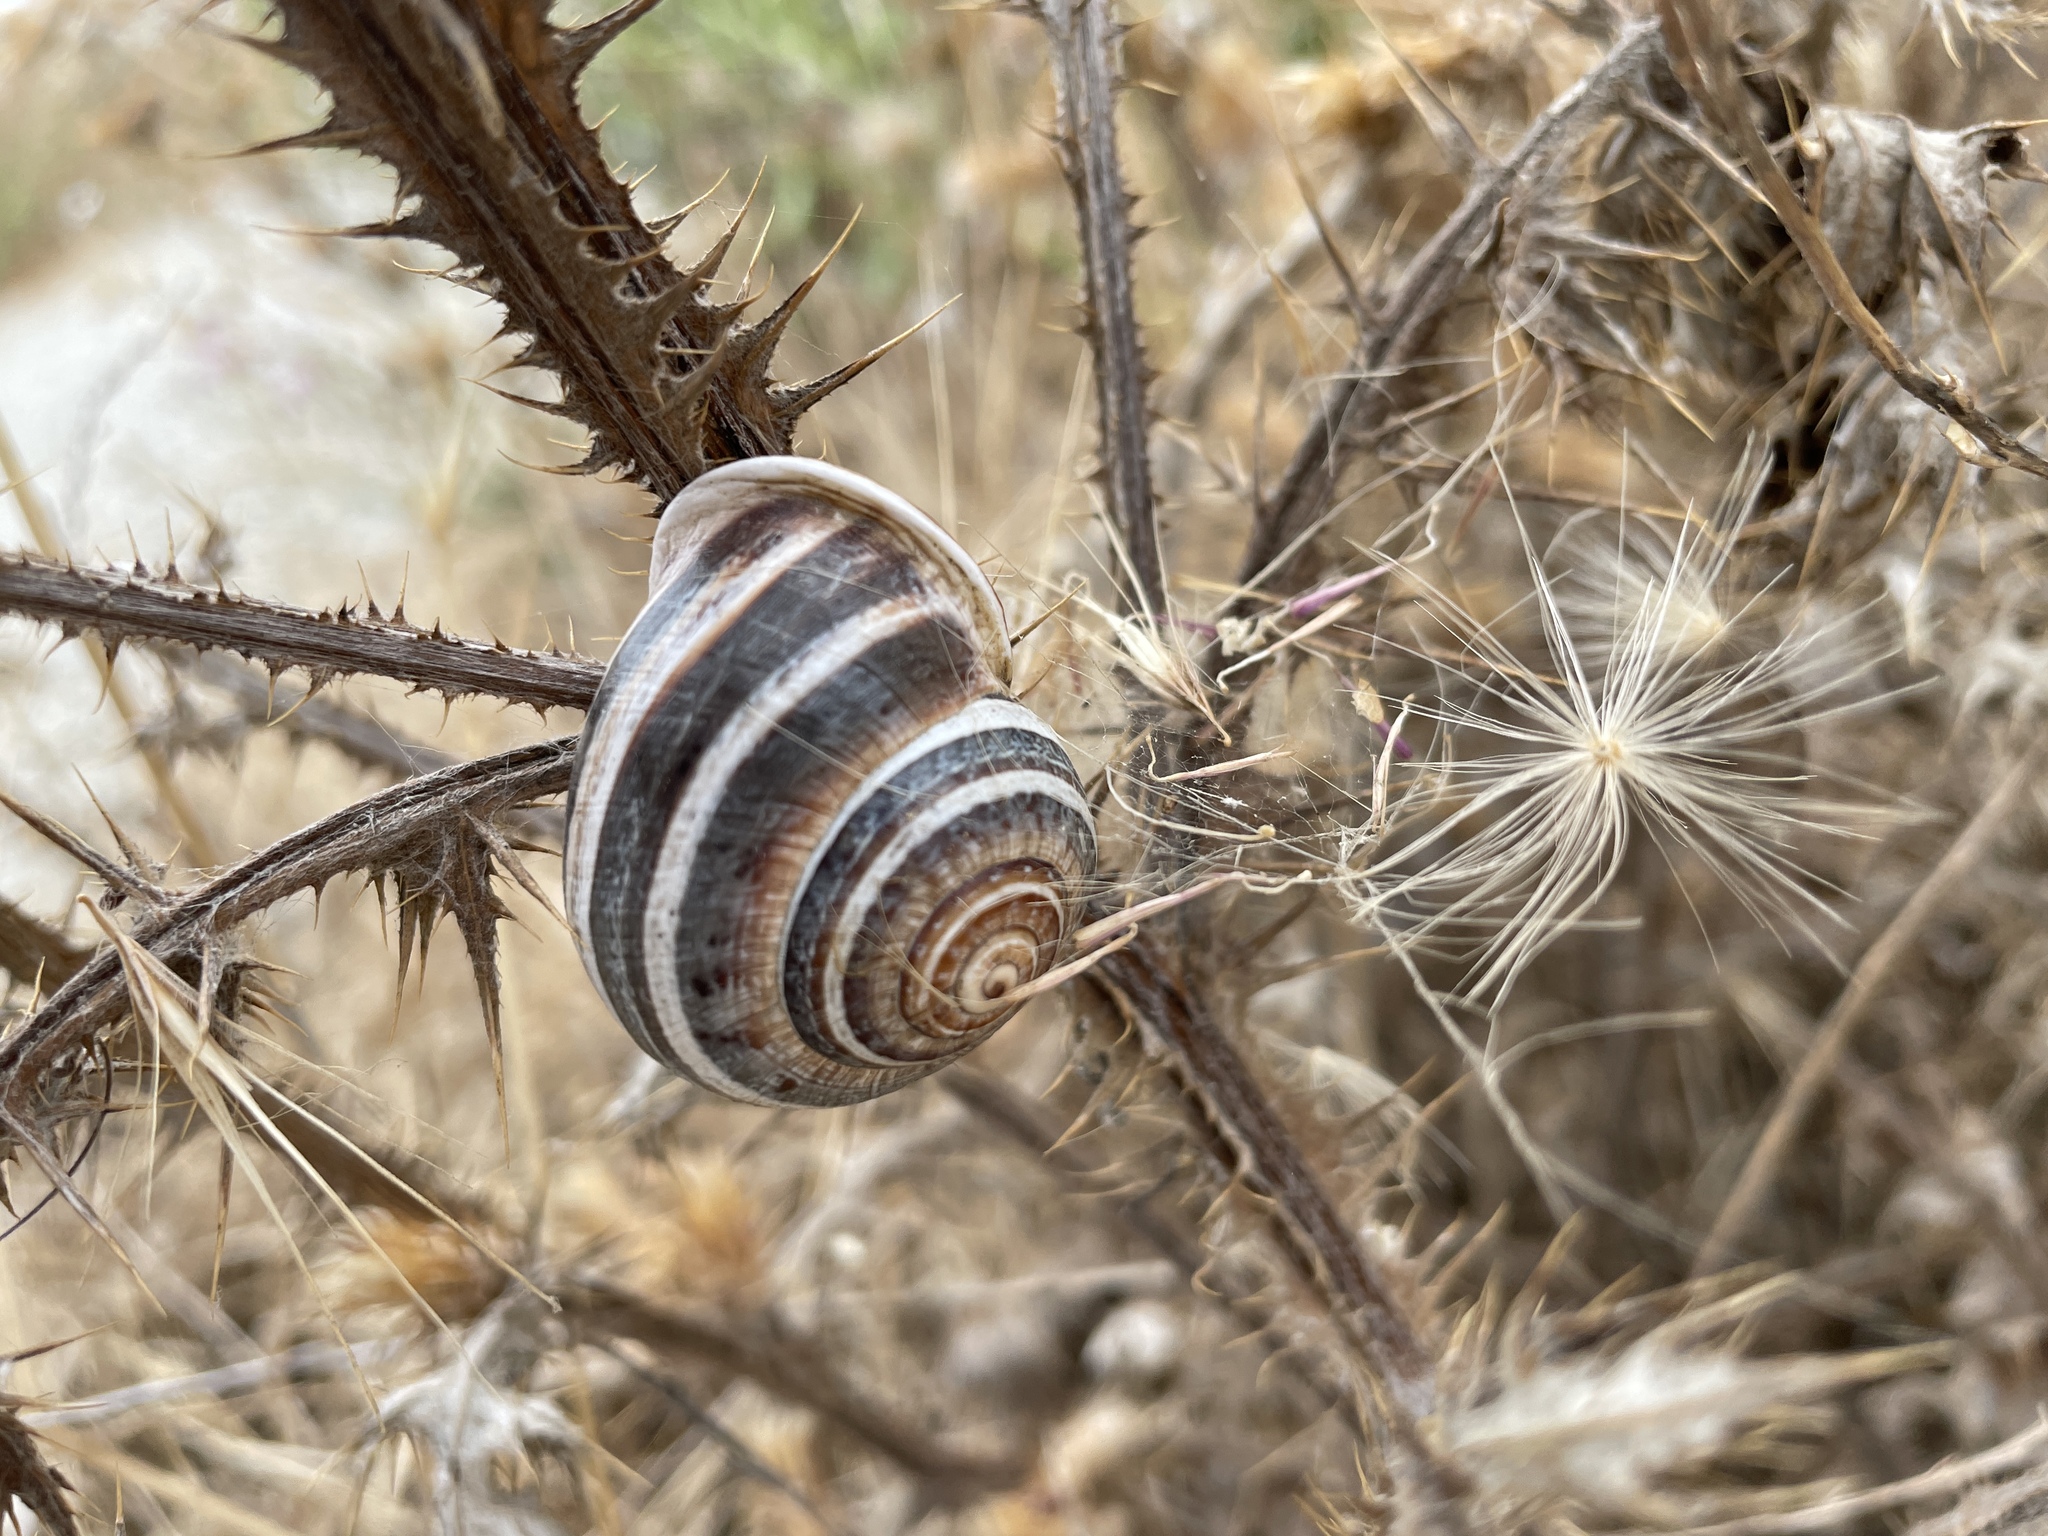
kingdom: Animalia
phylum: Mollusca
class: Gastropoda
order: Stylommatophora
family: Helicidae
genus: Otala
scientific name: Otala lactea
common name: Milk snail
